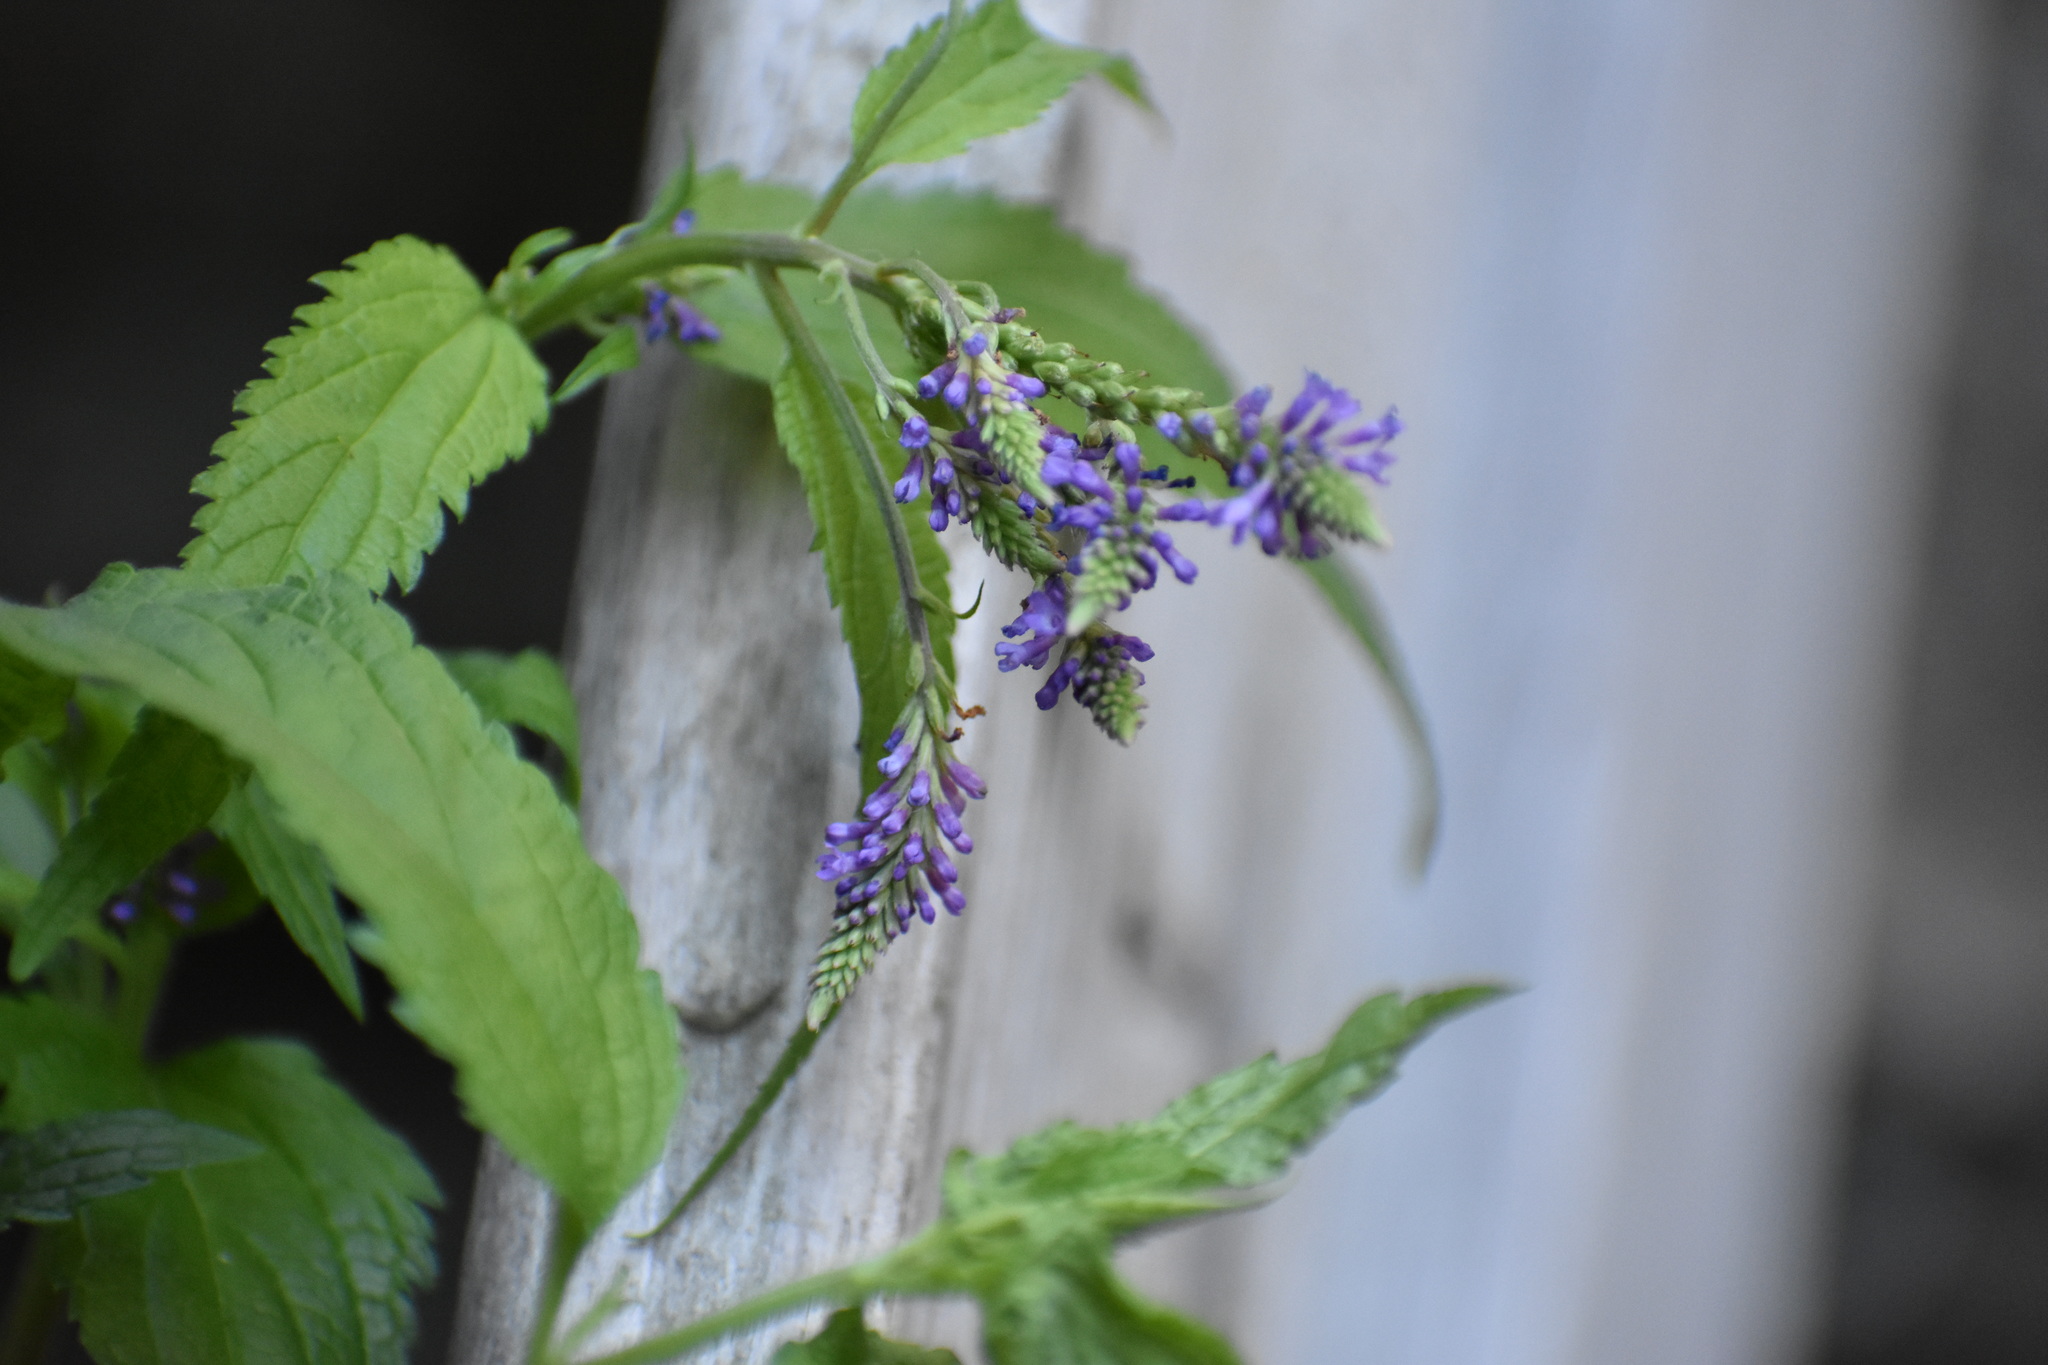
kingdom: Plantae
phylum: Tracheophyta
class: Magnoliopsida
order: Lamiales
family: Verbenaceae
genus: Verbena
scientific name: Verbena hastata
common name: American blue vervain
